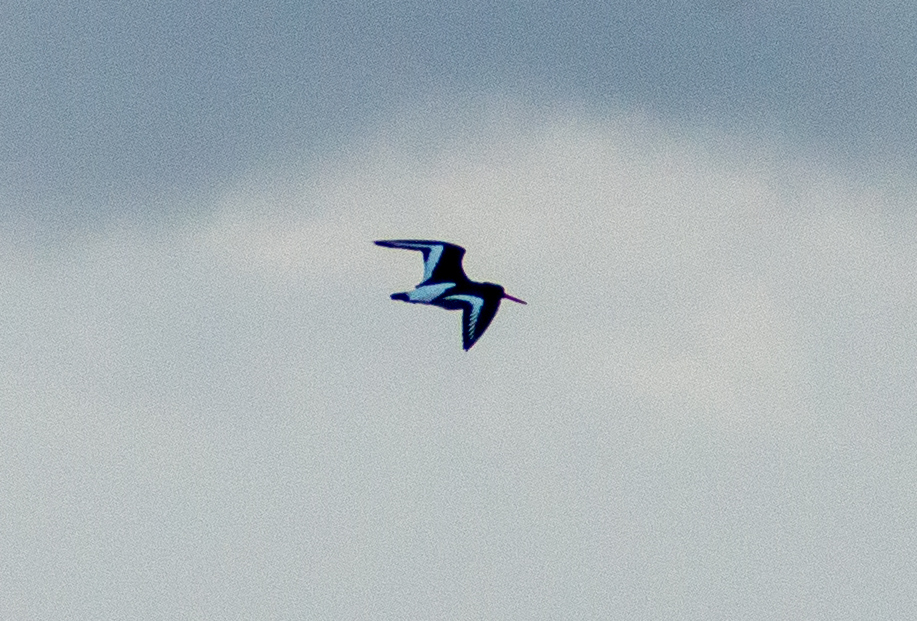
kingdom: Animalia
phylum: Chordata
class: Aves
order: Charadriiformes
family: Haematopodidae
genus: Haematopus
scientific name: Haematopus ostralegus
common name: Eurasian oystercatcher
